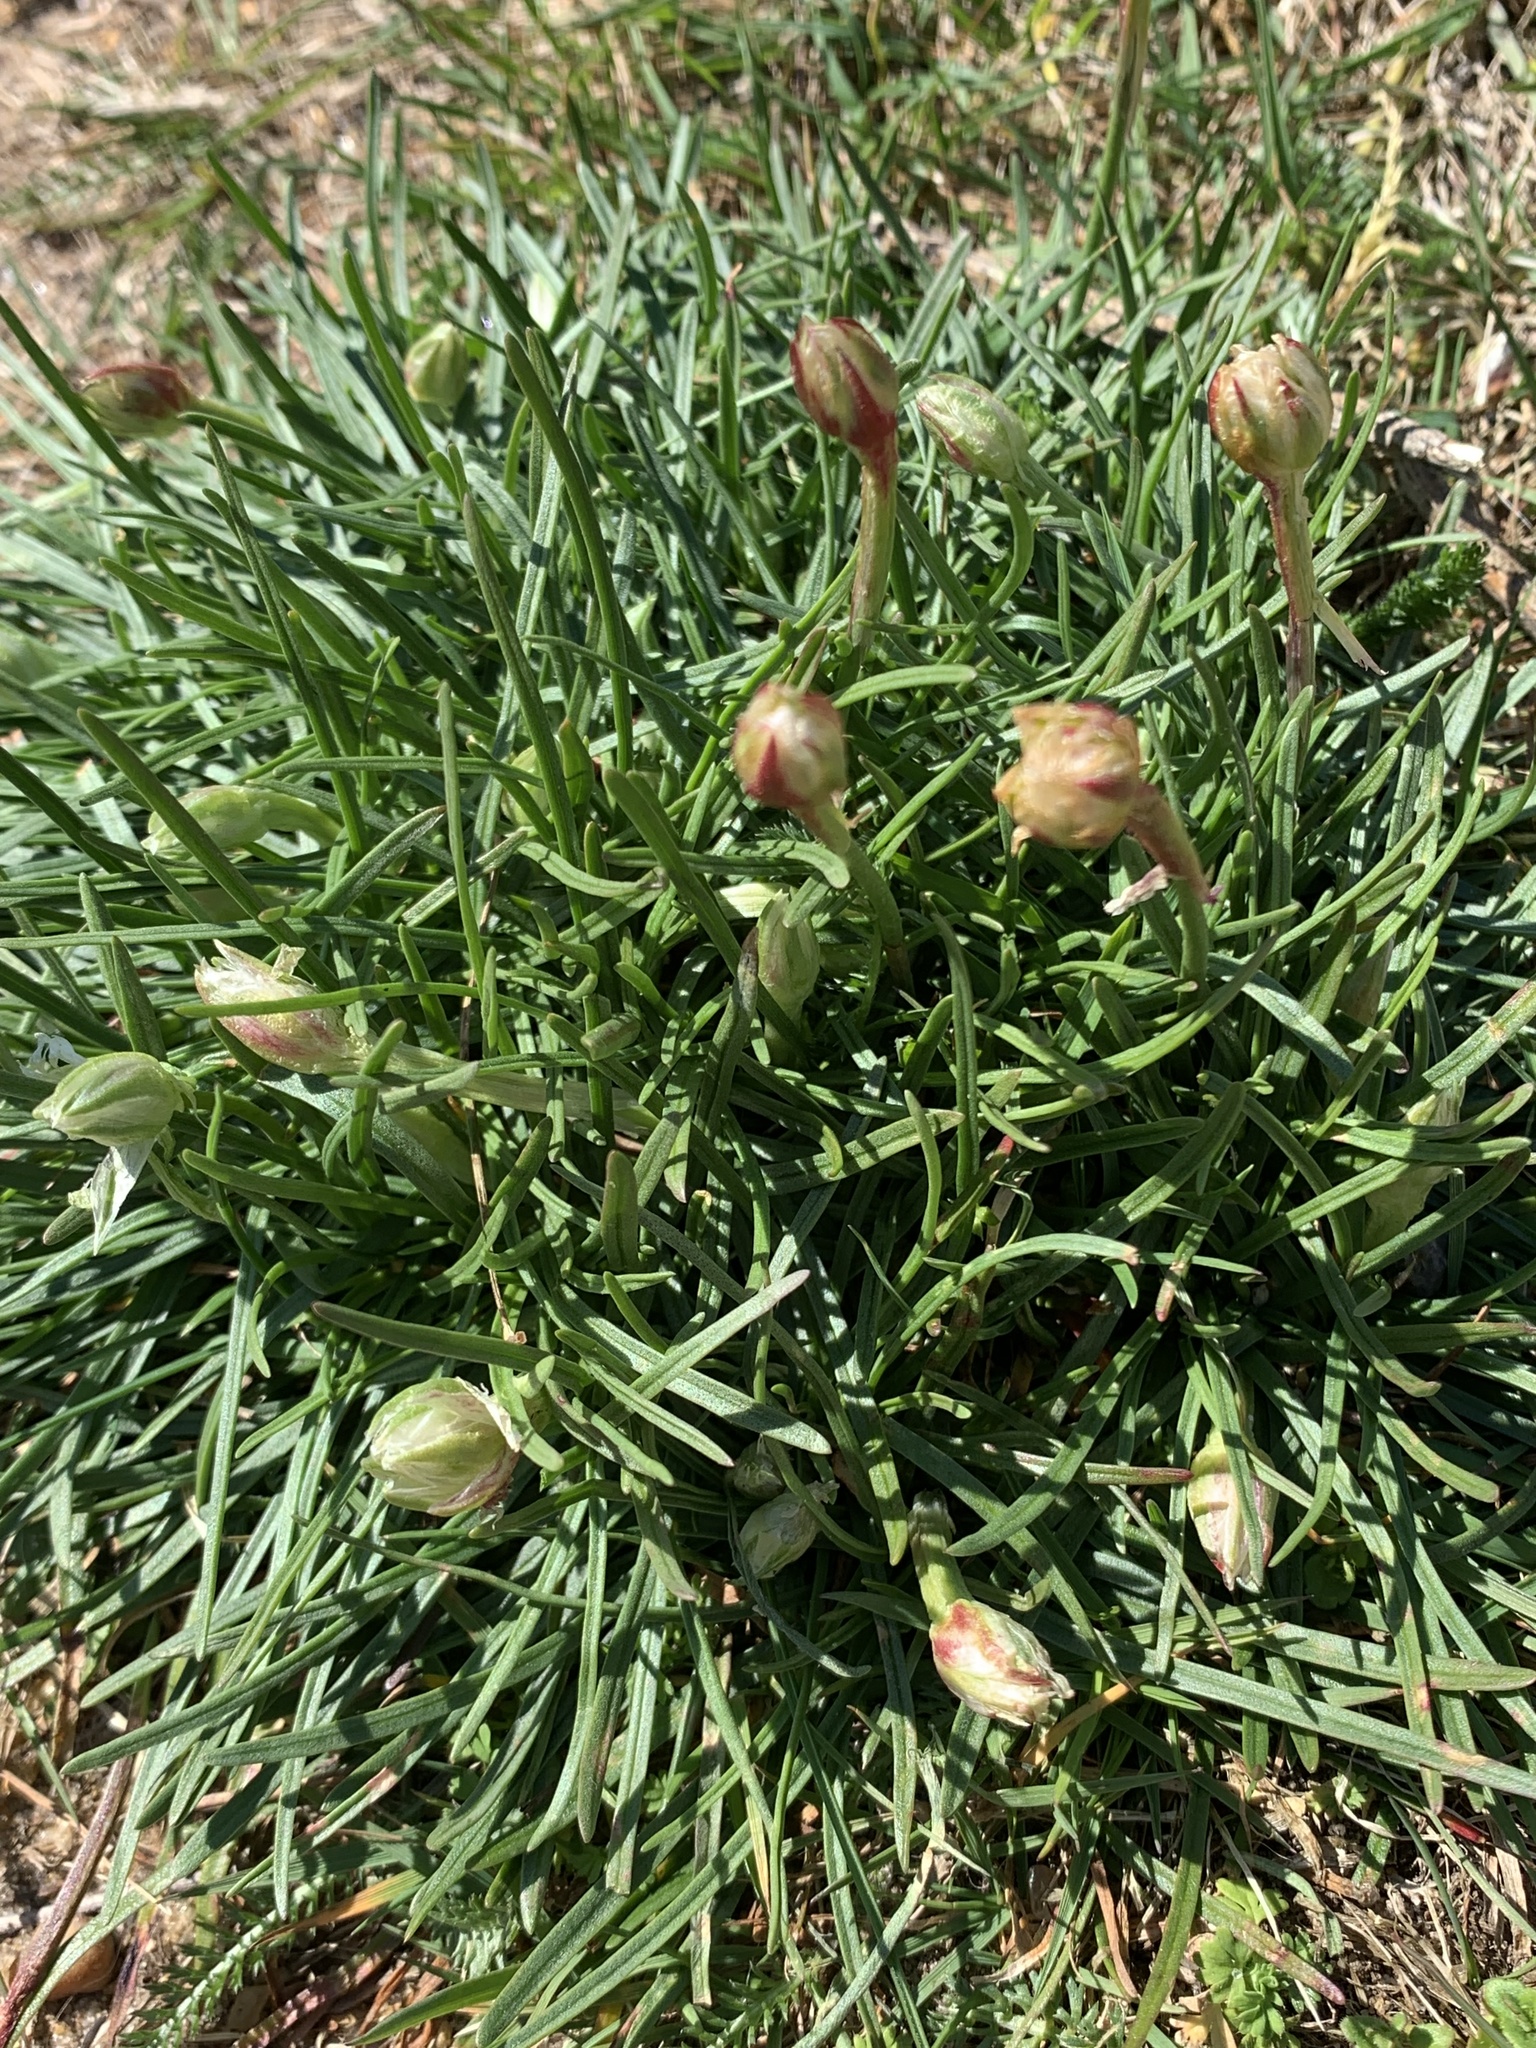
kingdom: Plantae
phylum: Tracheophyta
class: Magnoliopsida
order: Caryophyllales
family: Plumbaginaceae
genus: Armeria
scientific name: Armeria maritima
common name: Thrift
